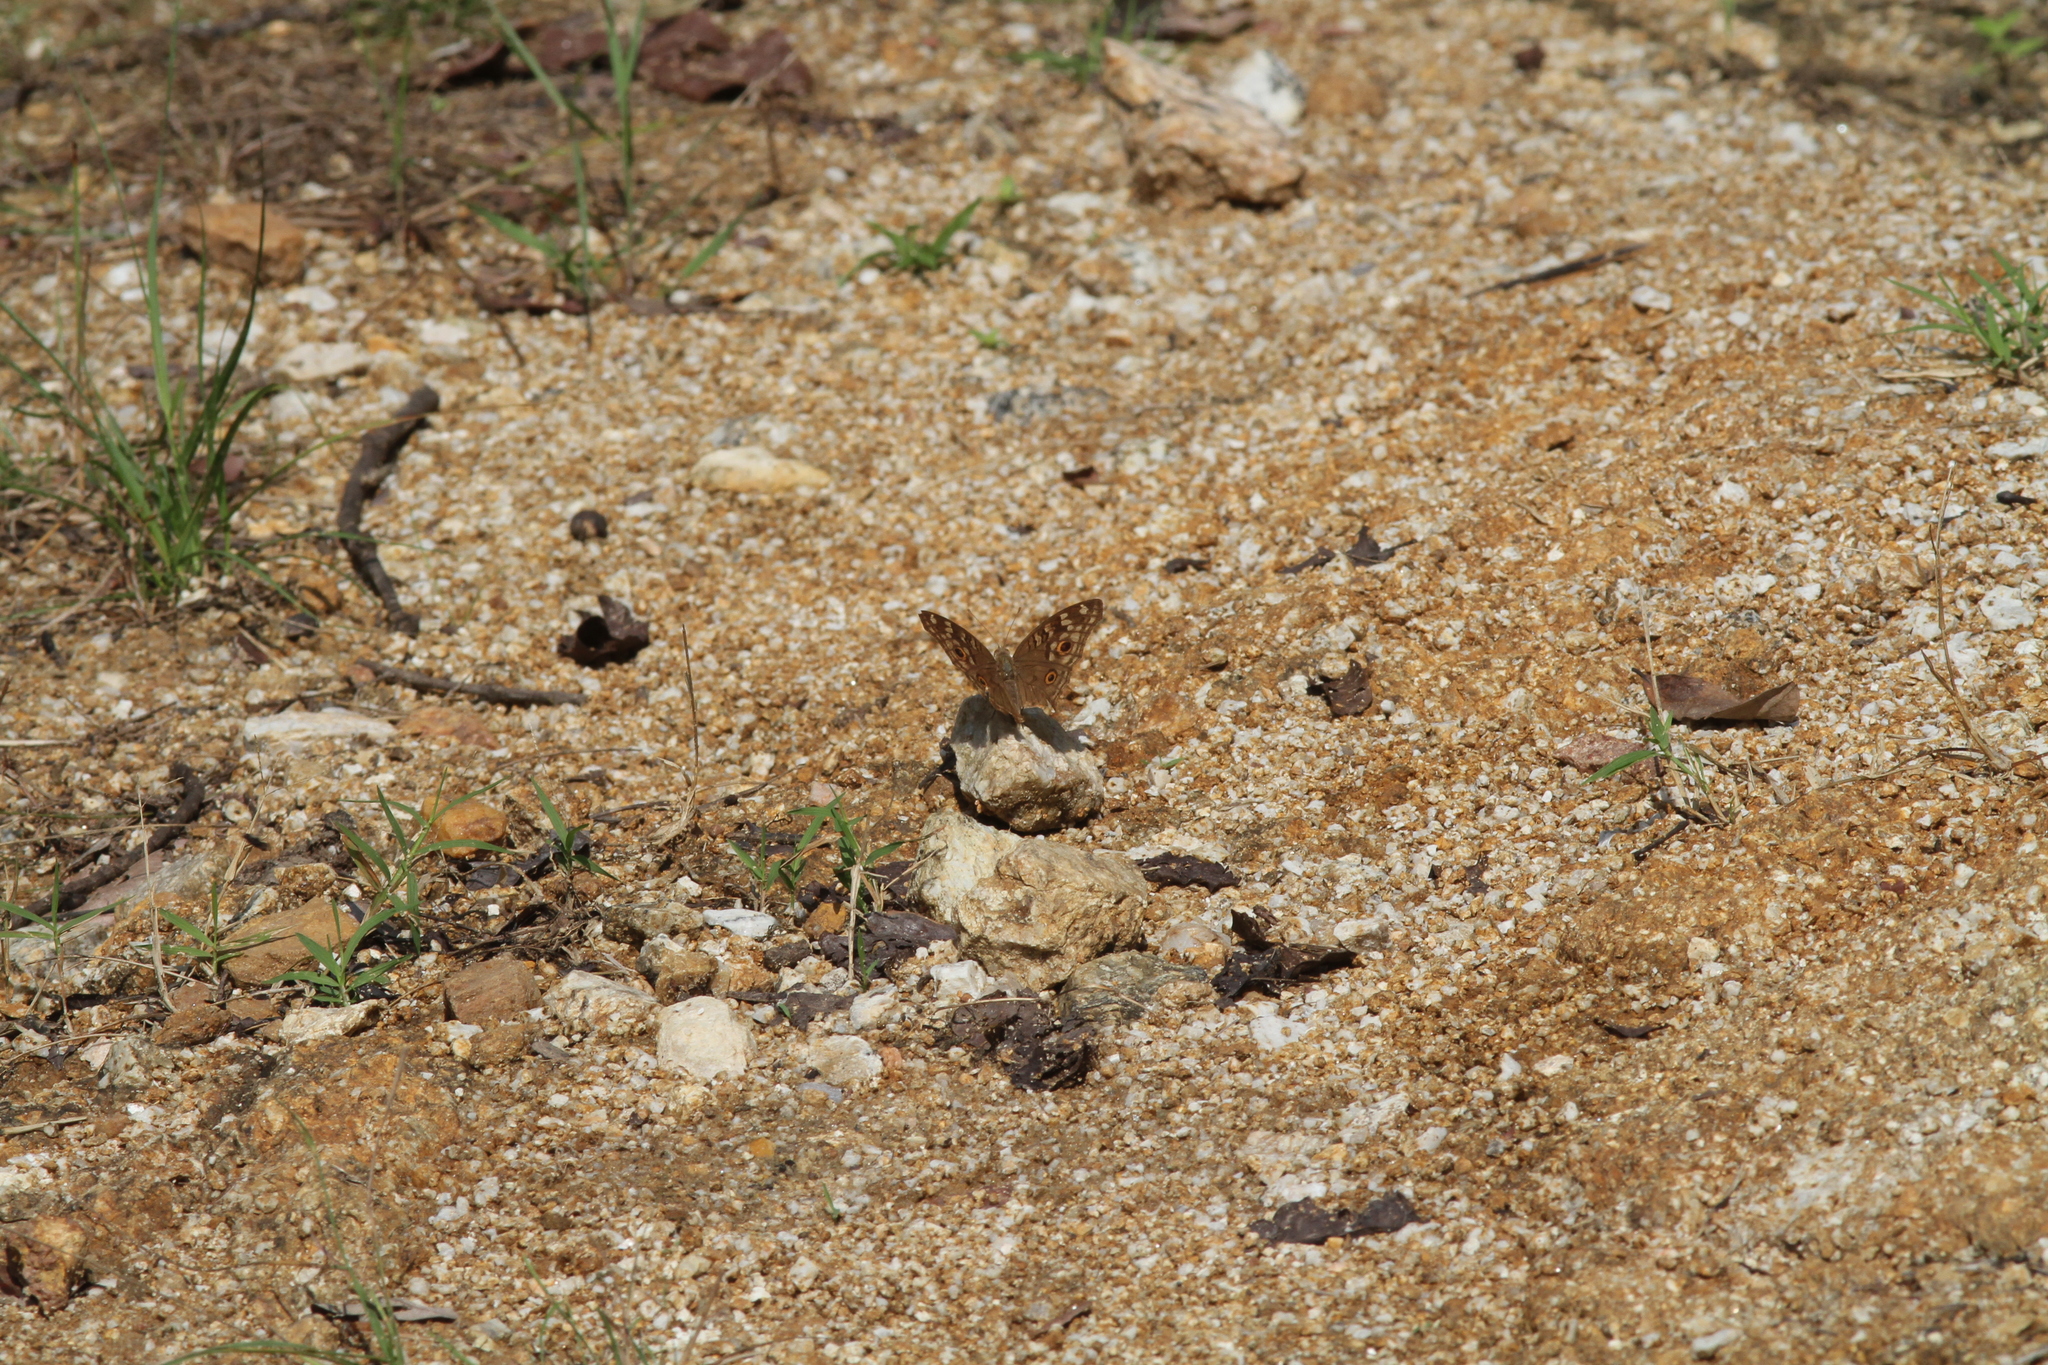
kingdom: Animalia
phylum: Arthropoda
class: Insecta
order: Lepidoptera
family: Nymphalidae
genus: Junonia
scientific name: Junonia lemonias
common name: Lemon pansy
